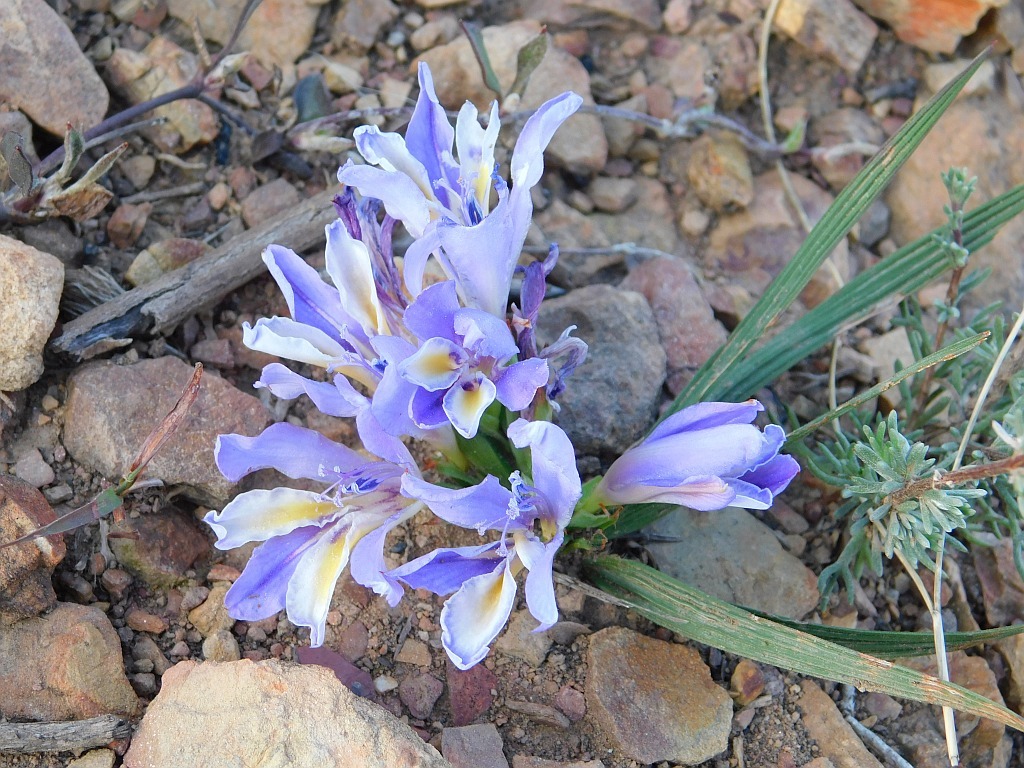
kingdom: Plantae
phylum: Tracheophyta
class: Liliopsida
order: Asparagales
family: Iridaceae
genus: Babiana
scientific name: Babiana ambigua
